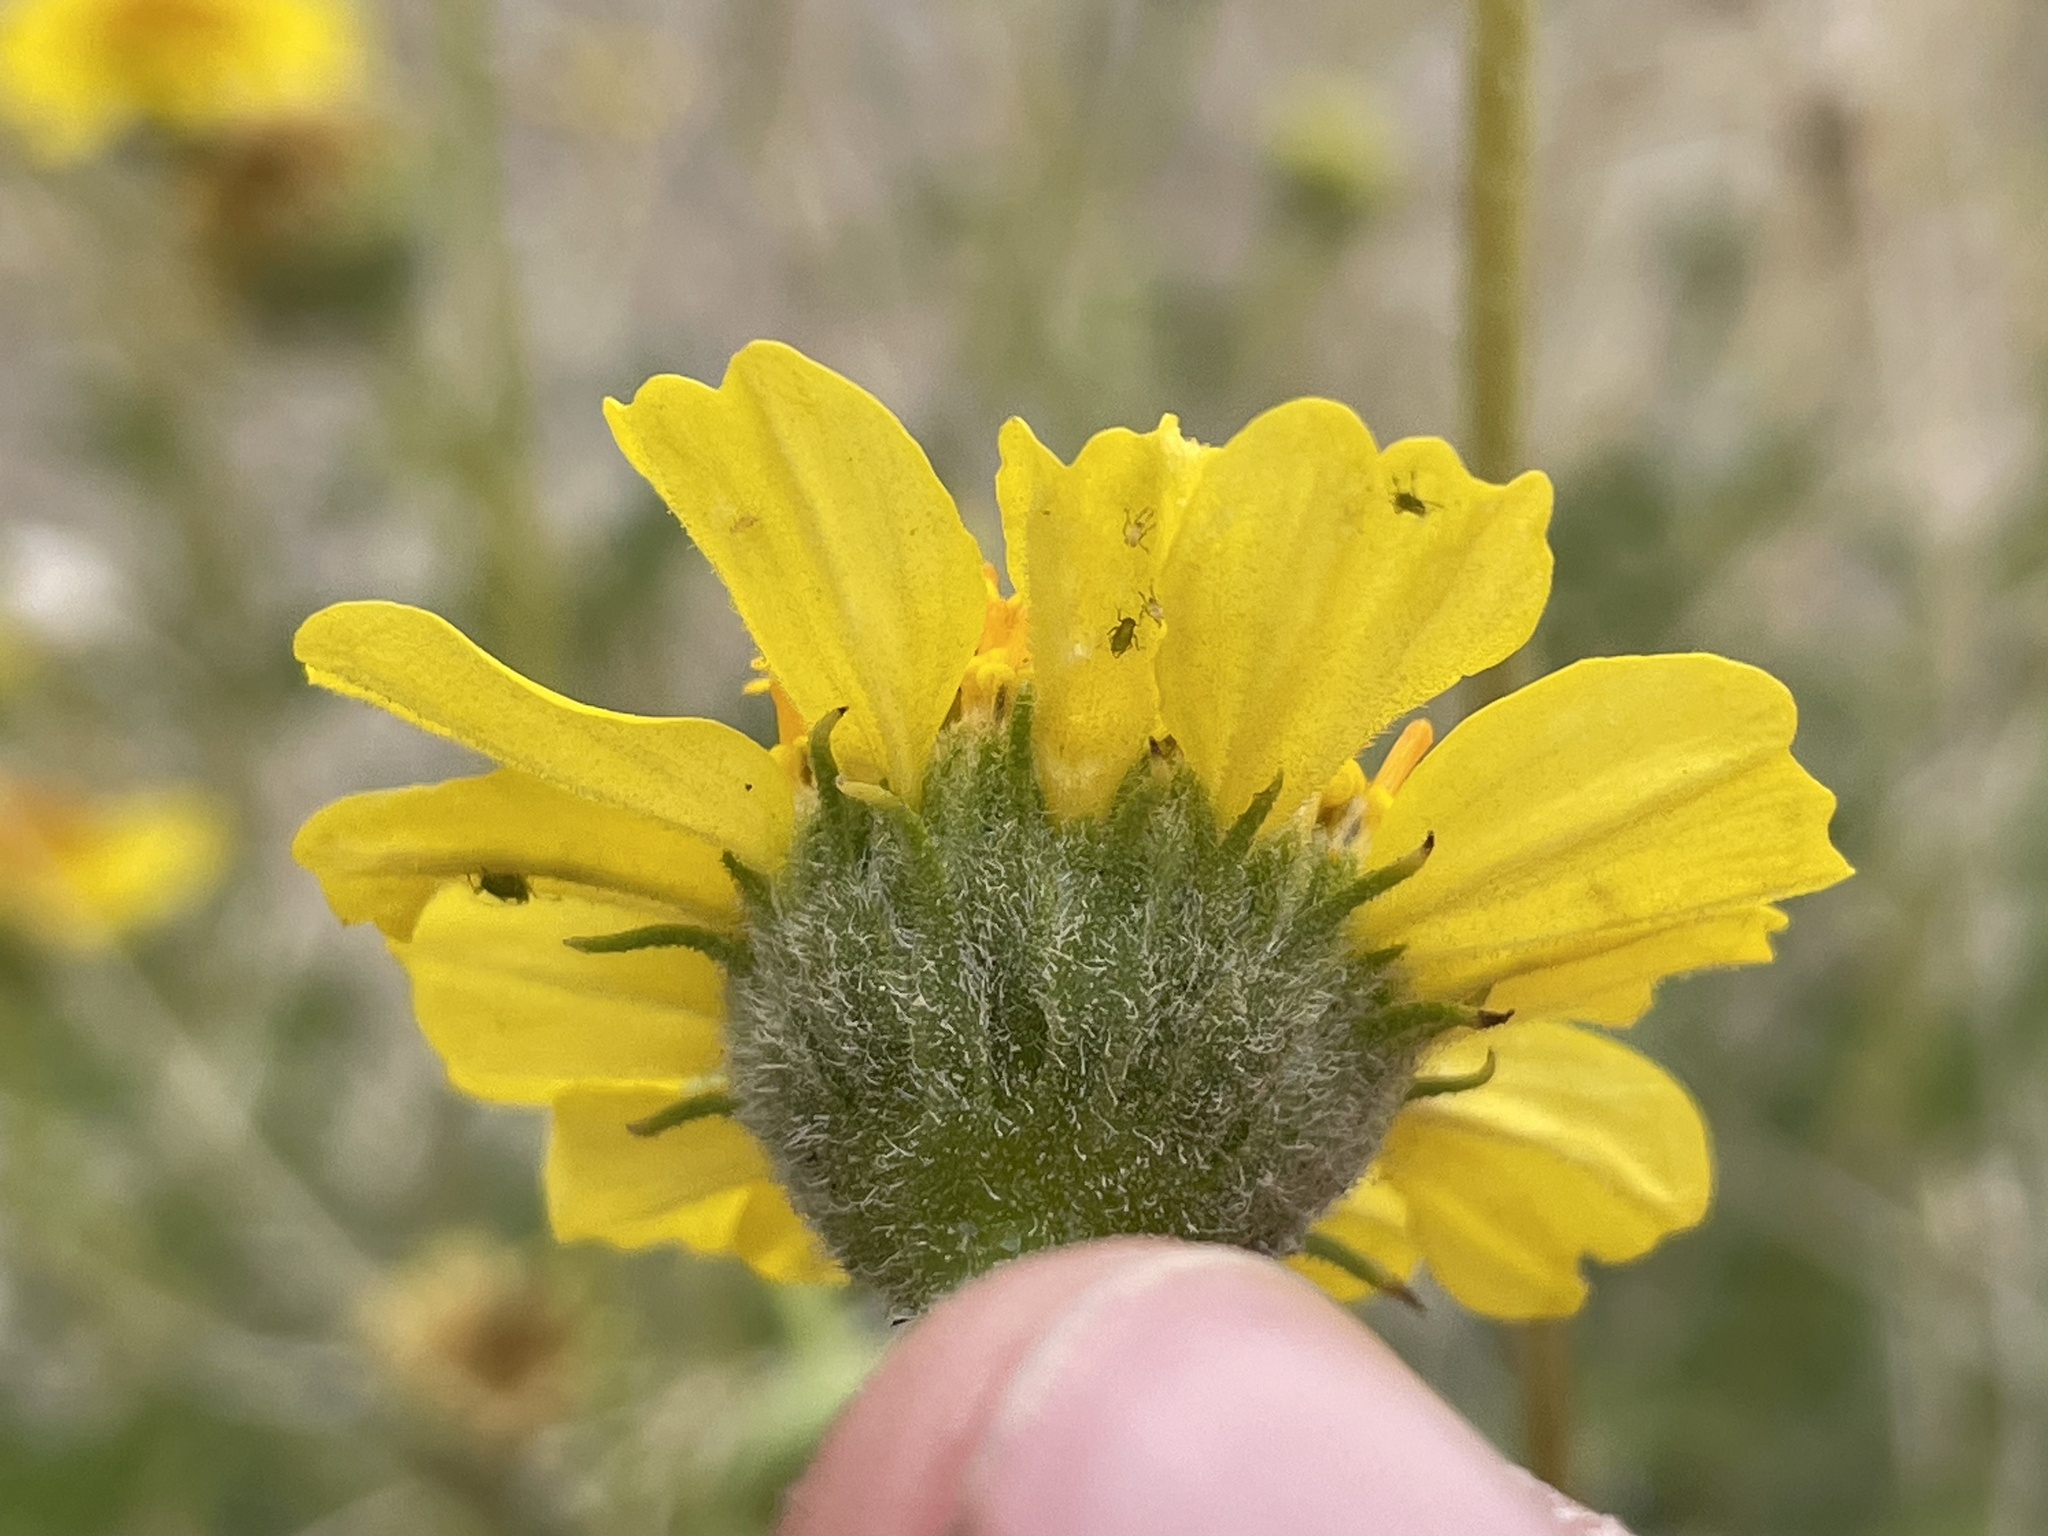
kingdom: Plantae
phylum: Tracheophyta
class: Magnoliopsida
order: Asterales
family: Asteraceae
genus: Encelia
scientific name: Encelia virginensis
